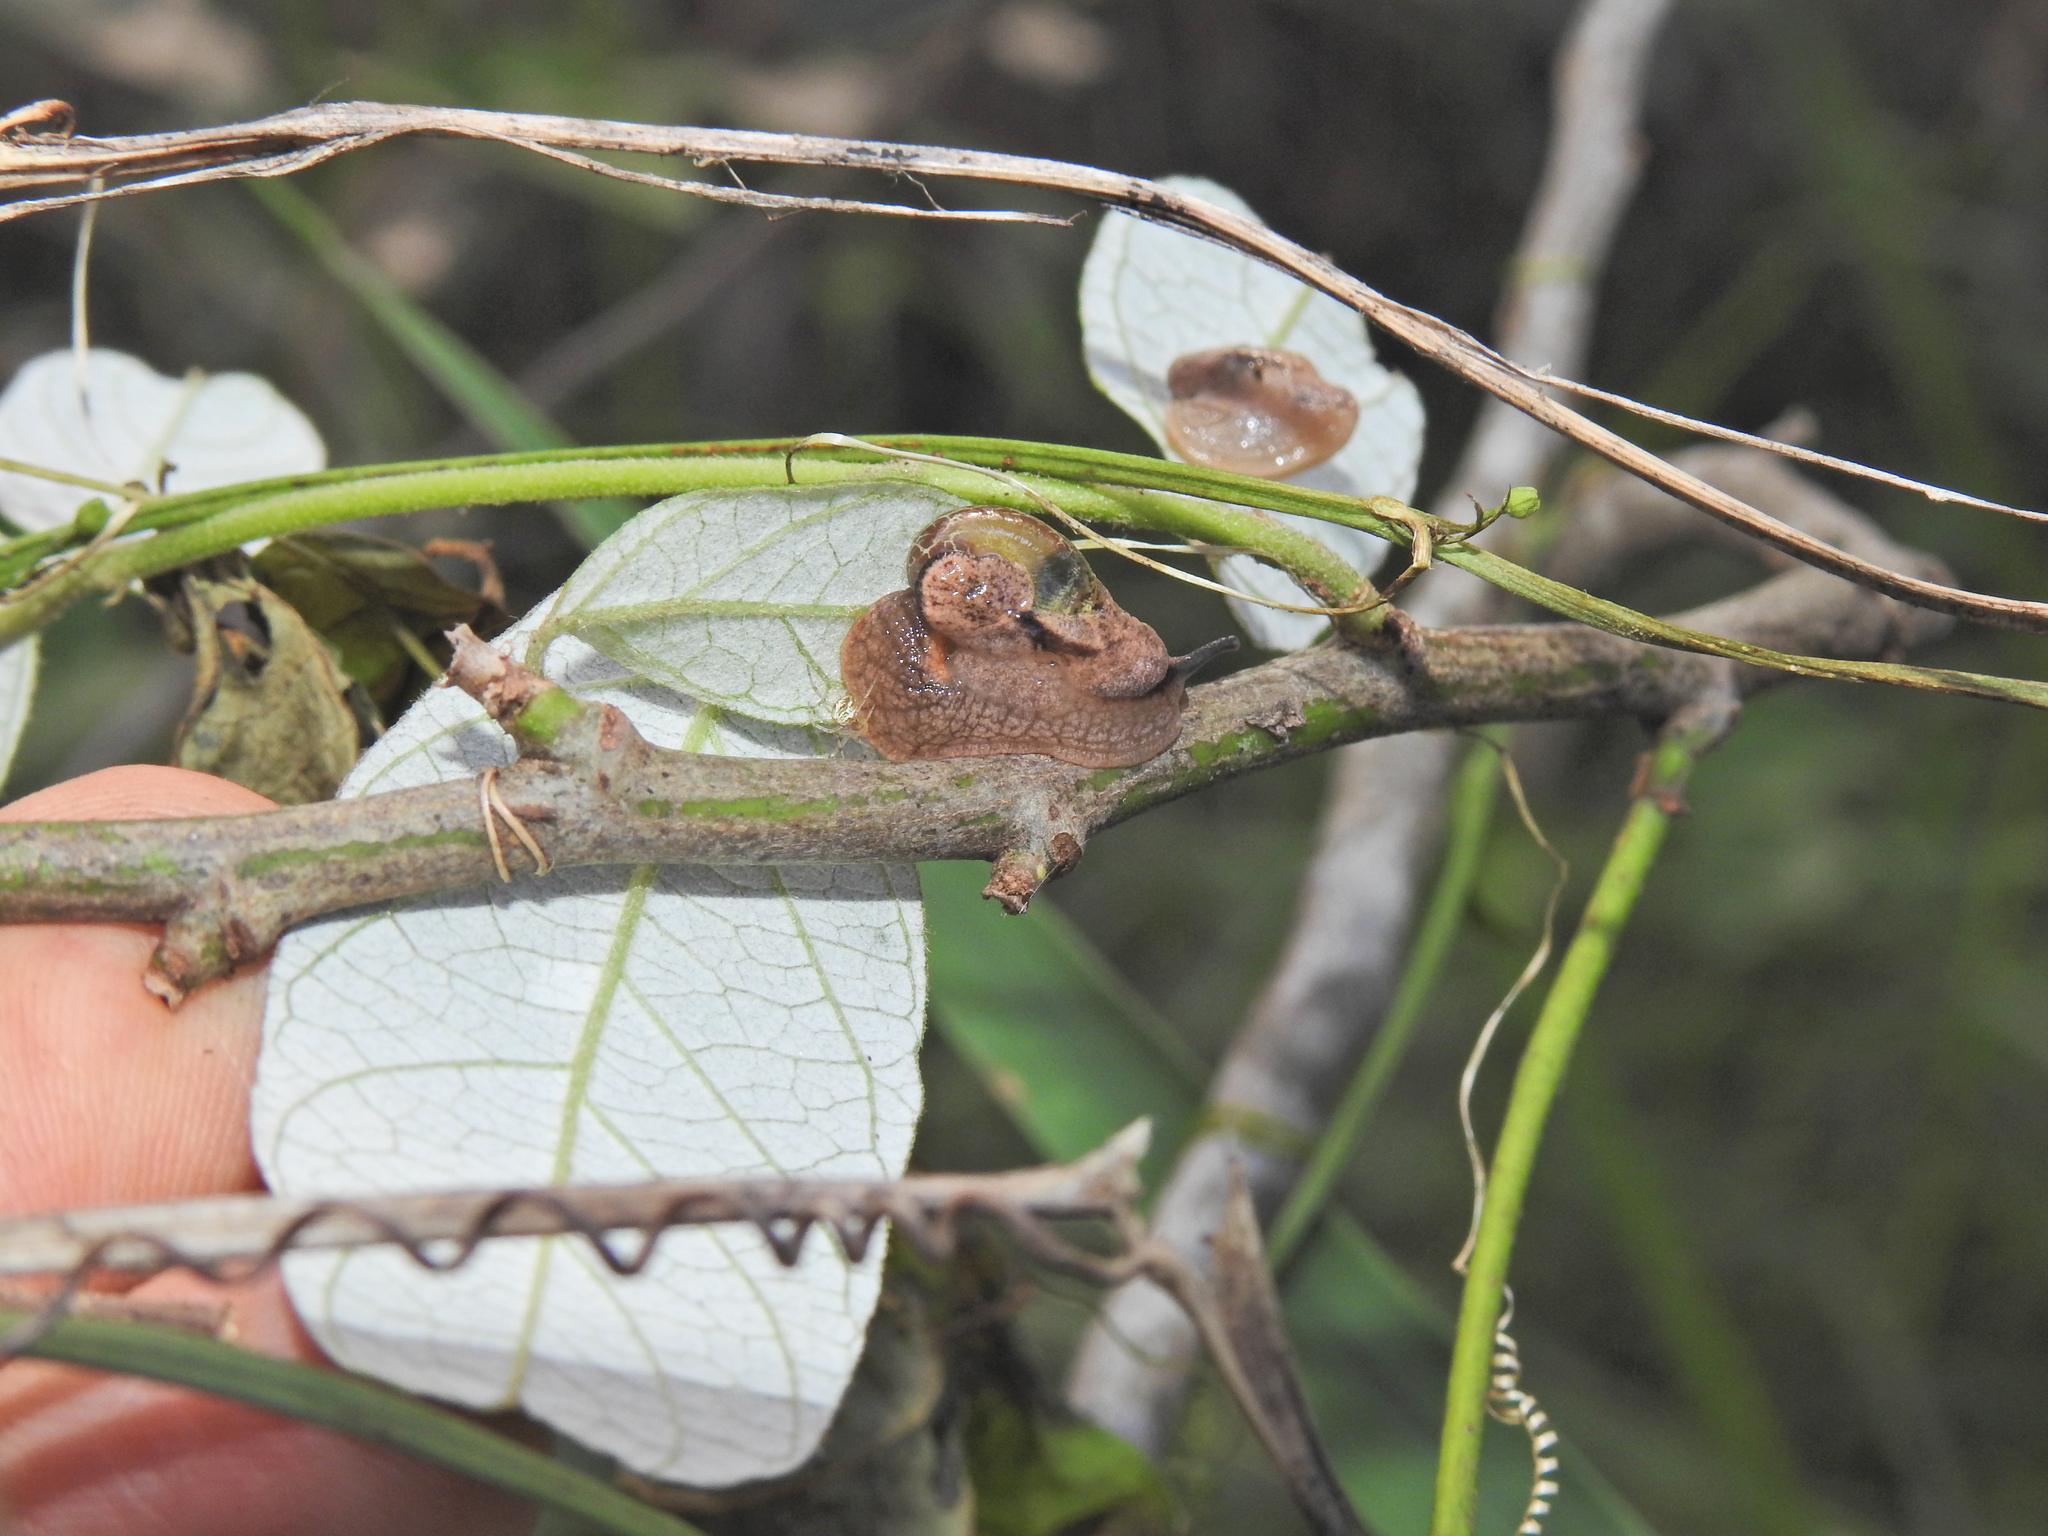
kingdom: Animalia
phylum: Mollusca
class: Gastropoda
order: Stylommatophora
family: Helicarionidae
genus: Stanisicarion
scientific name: Stanisicarion freycineti
